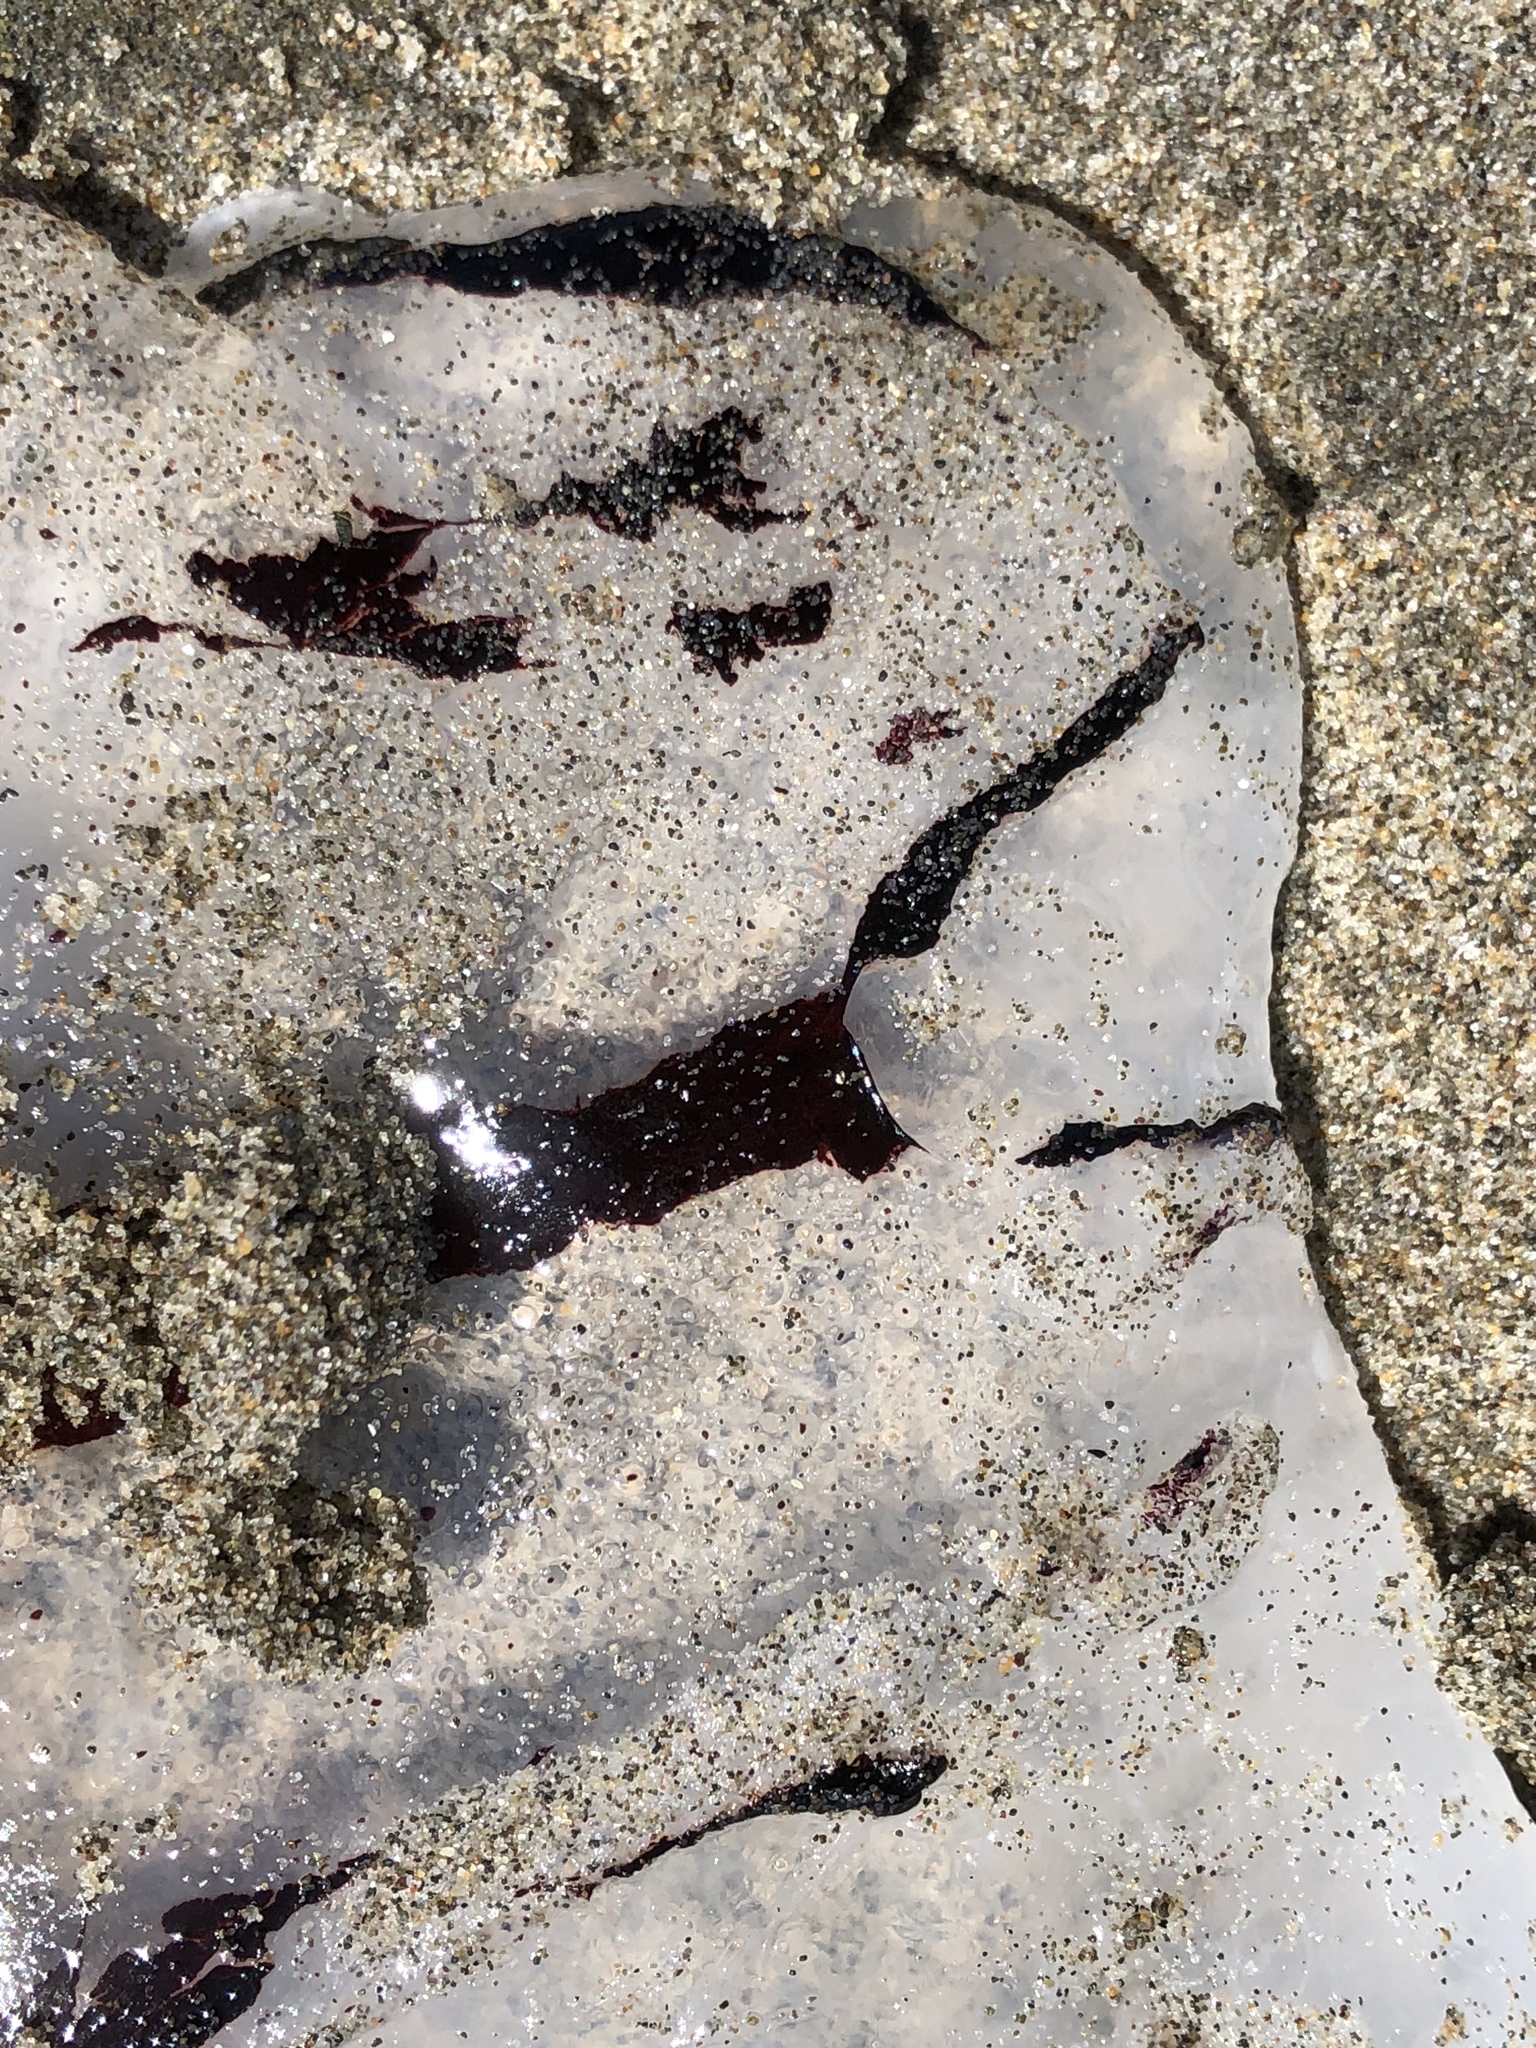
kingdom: Animalia
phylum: Cnidaria
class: Scyphozoa
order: Semaeostomeae
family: Pelagiidae
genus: Chrysaora
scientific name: Chrysaora colorata
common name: Purple-striped jellyfish
